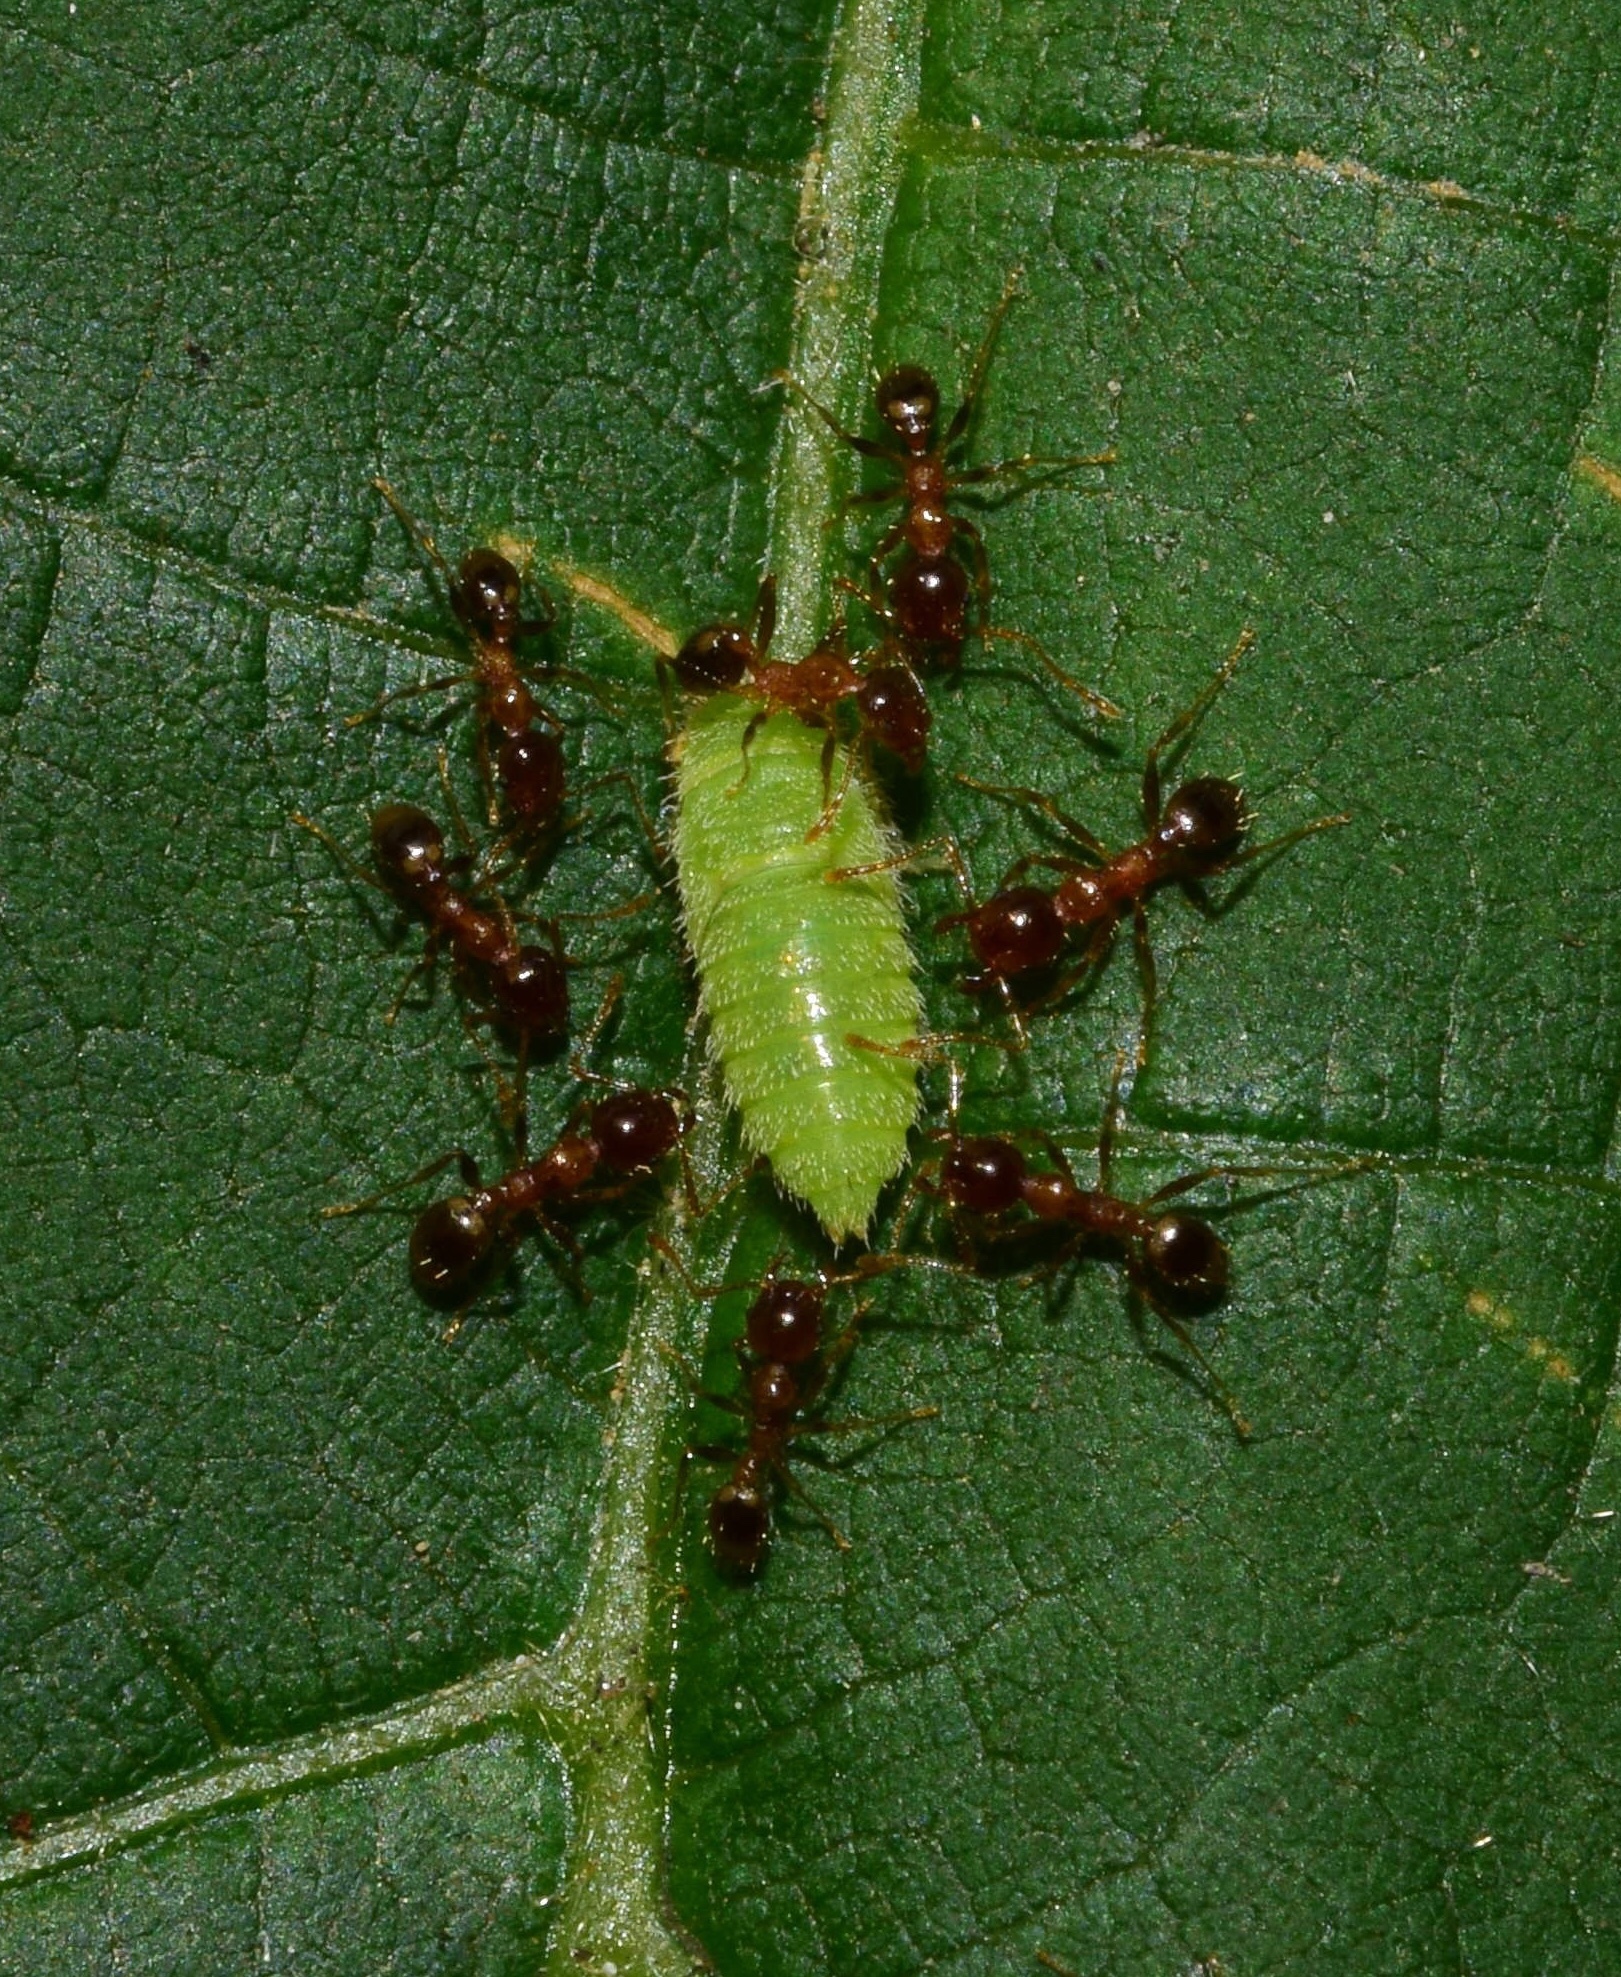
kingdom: Animalia
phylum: Arthropoda
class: Insecta
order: Hymenoptera
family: Formicidae
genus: Pheidole
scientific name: Pheidole megacephala
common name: Bigheaded ant
